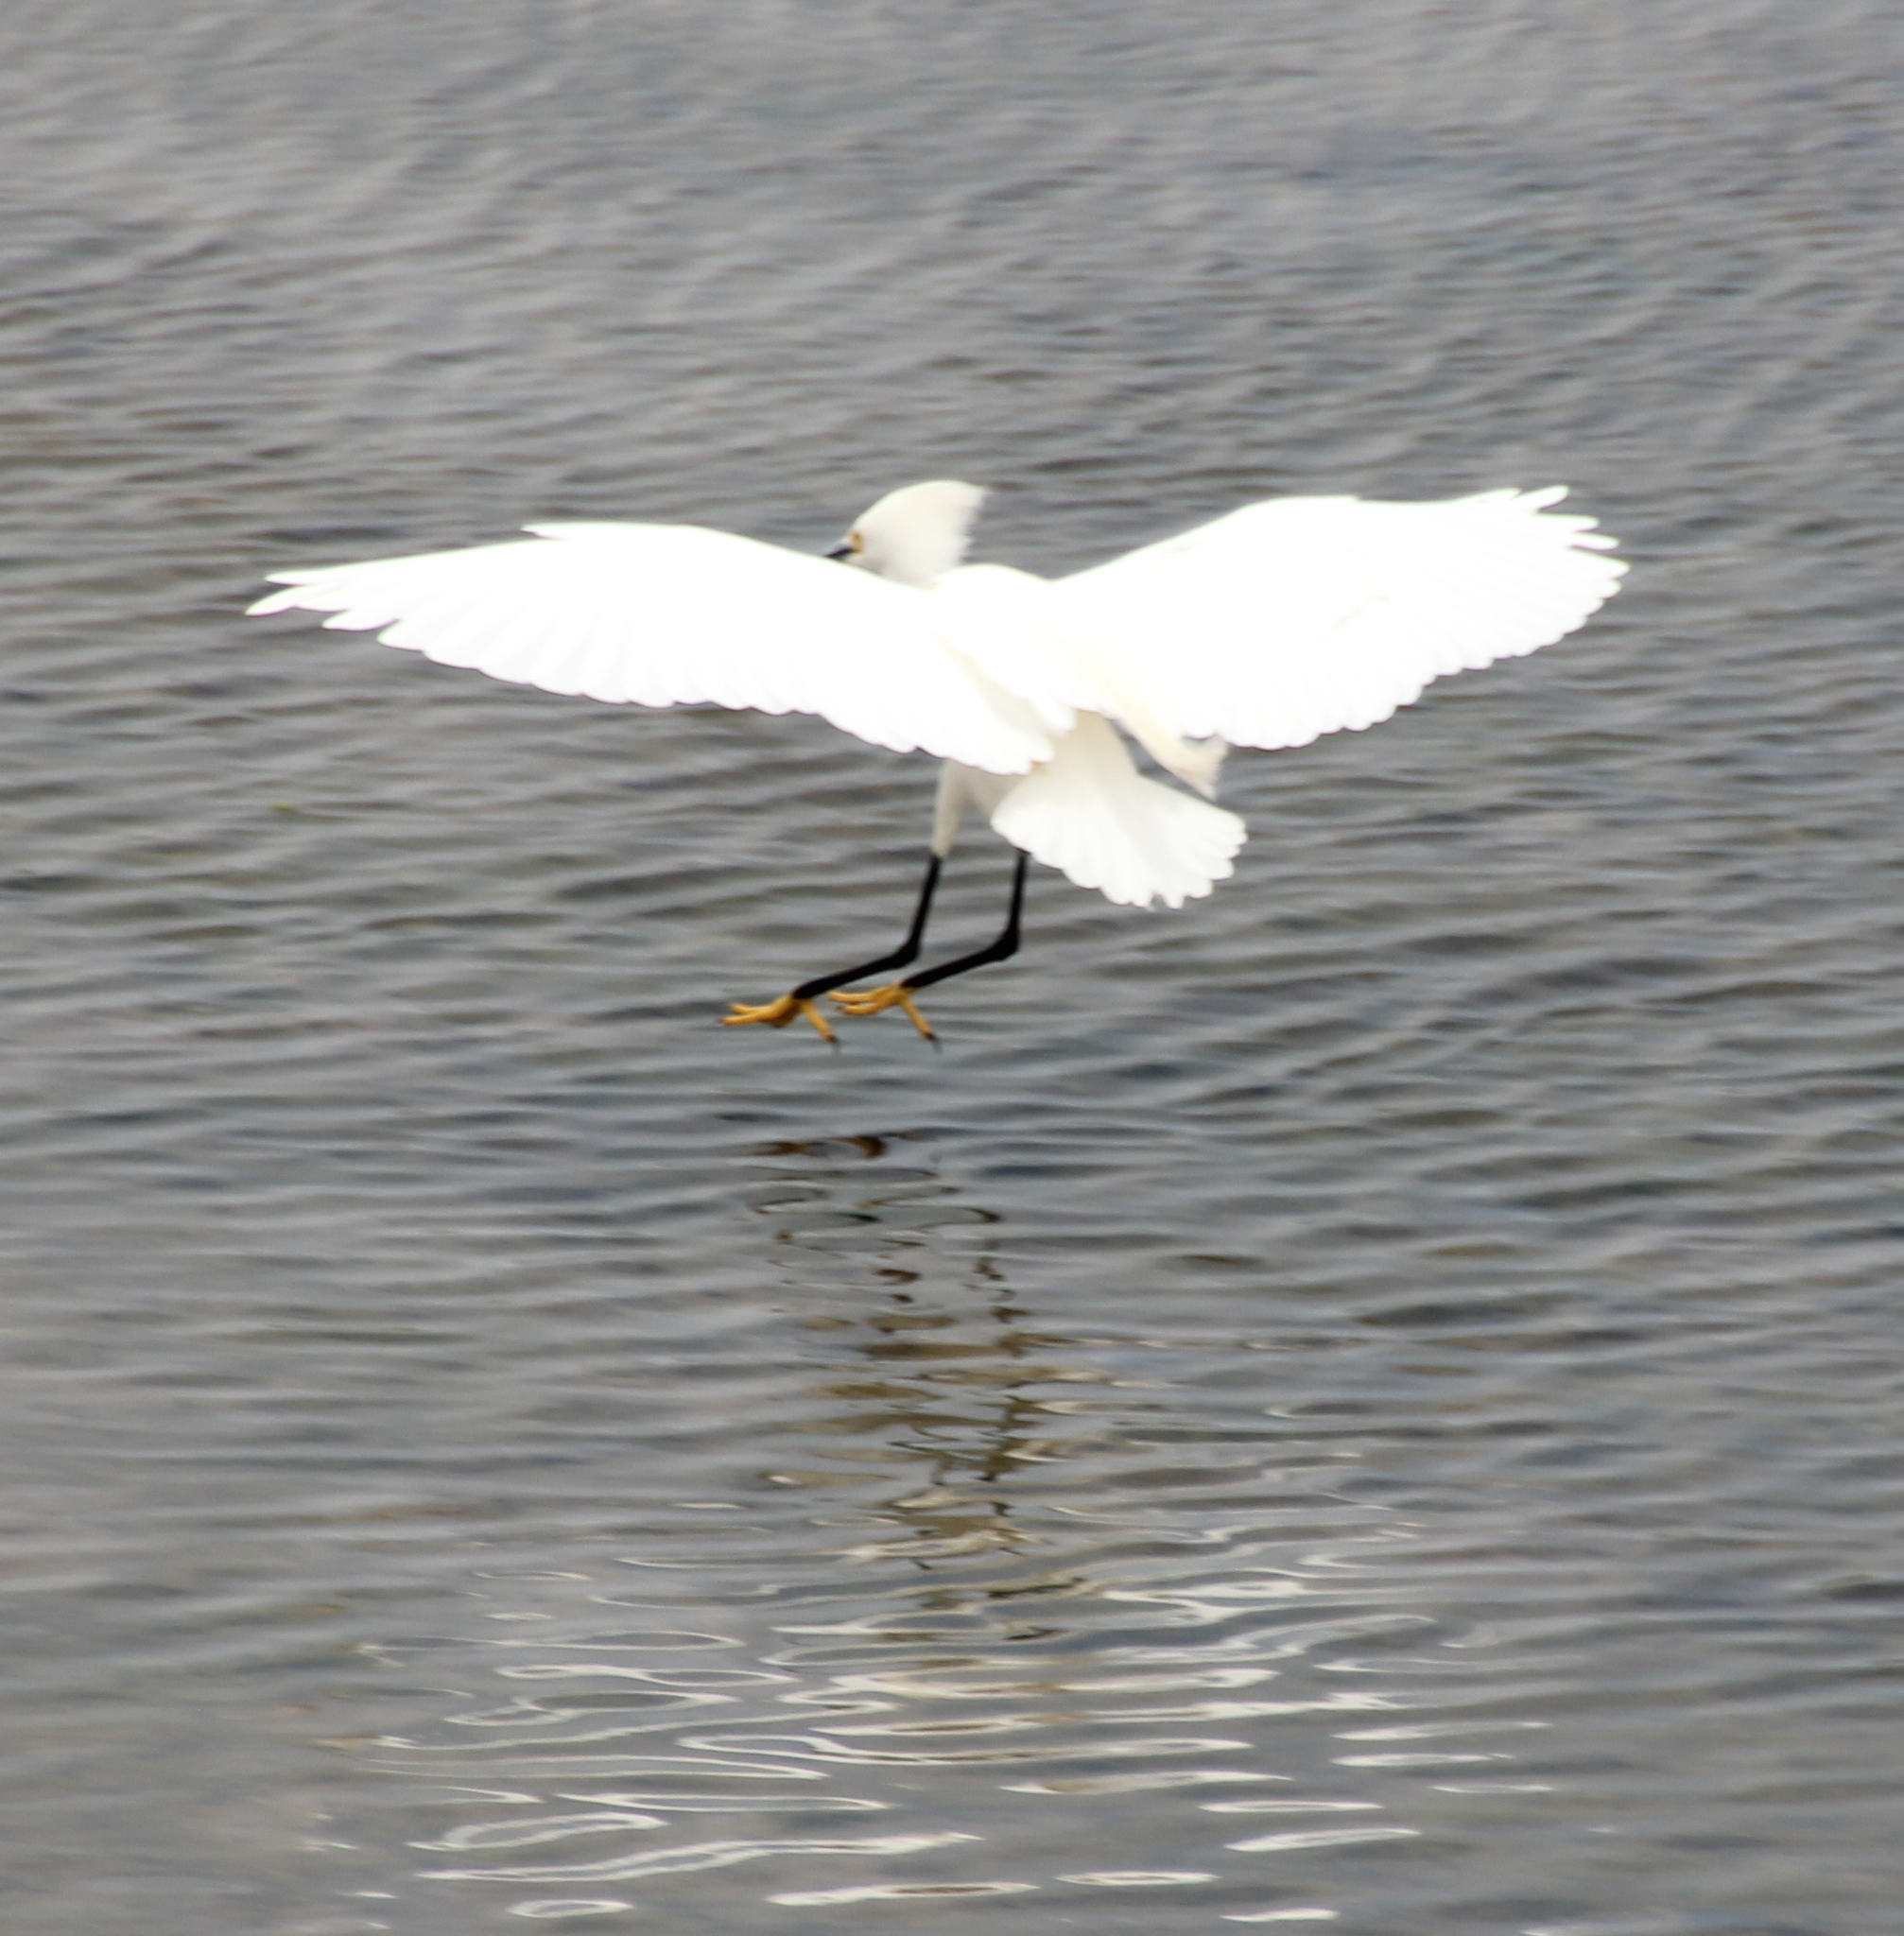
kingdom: Animalia
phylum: Chordata
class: Aves
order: Pelecaniformes
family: Ardeidae
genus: Egretta
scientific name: Egretta thula
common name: Snowy egret
